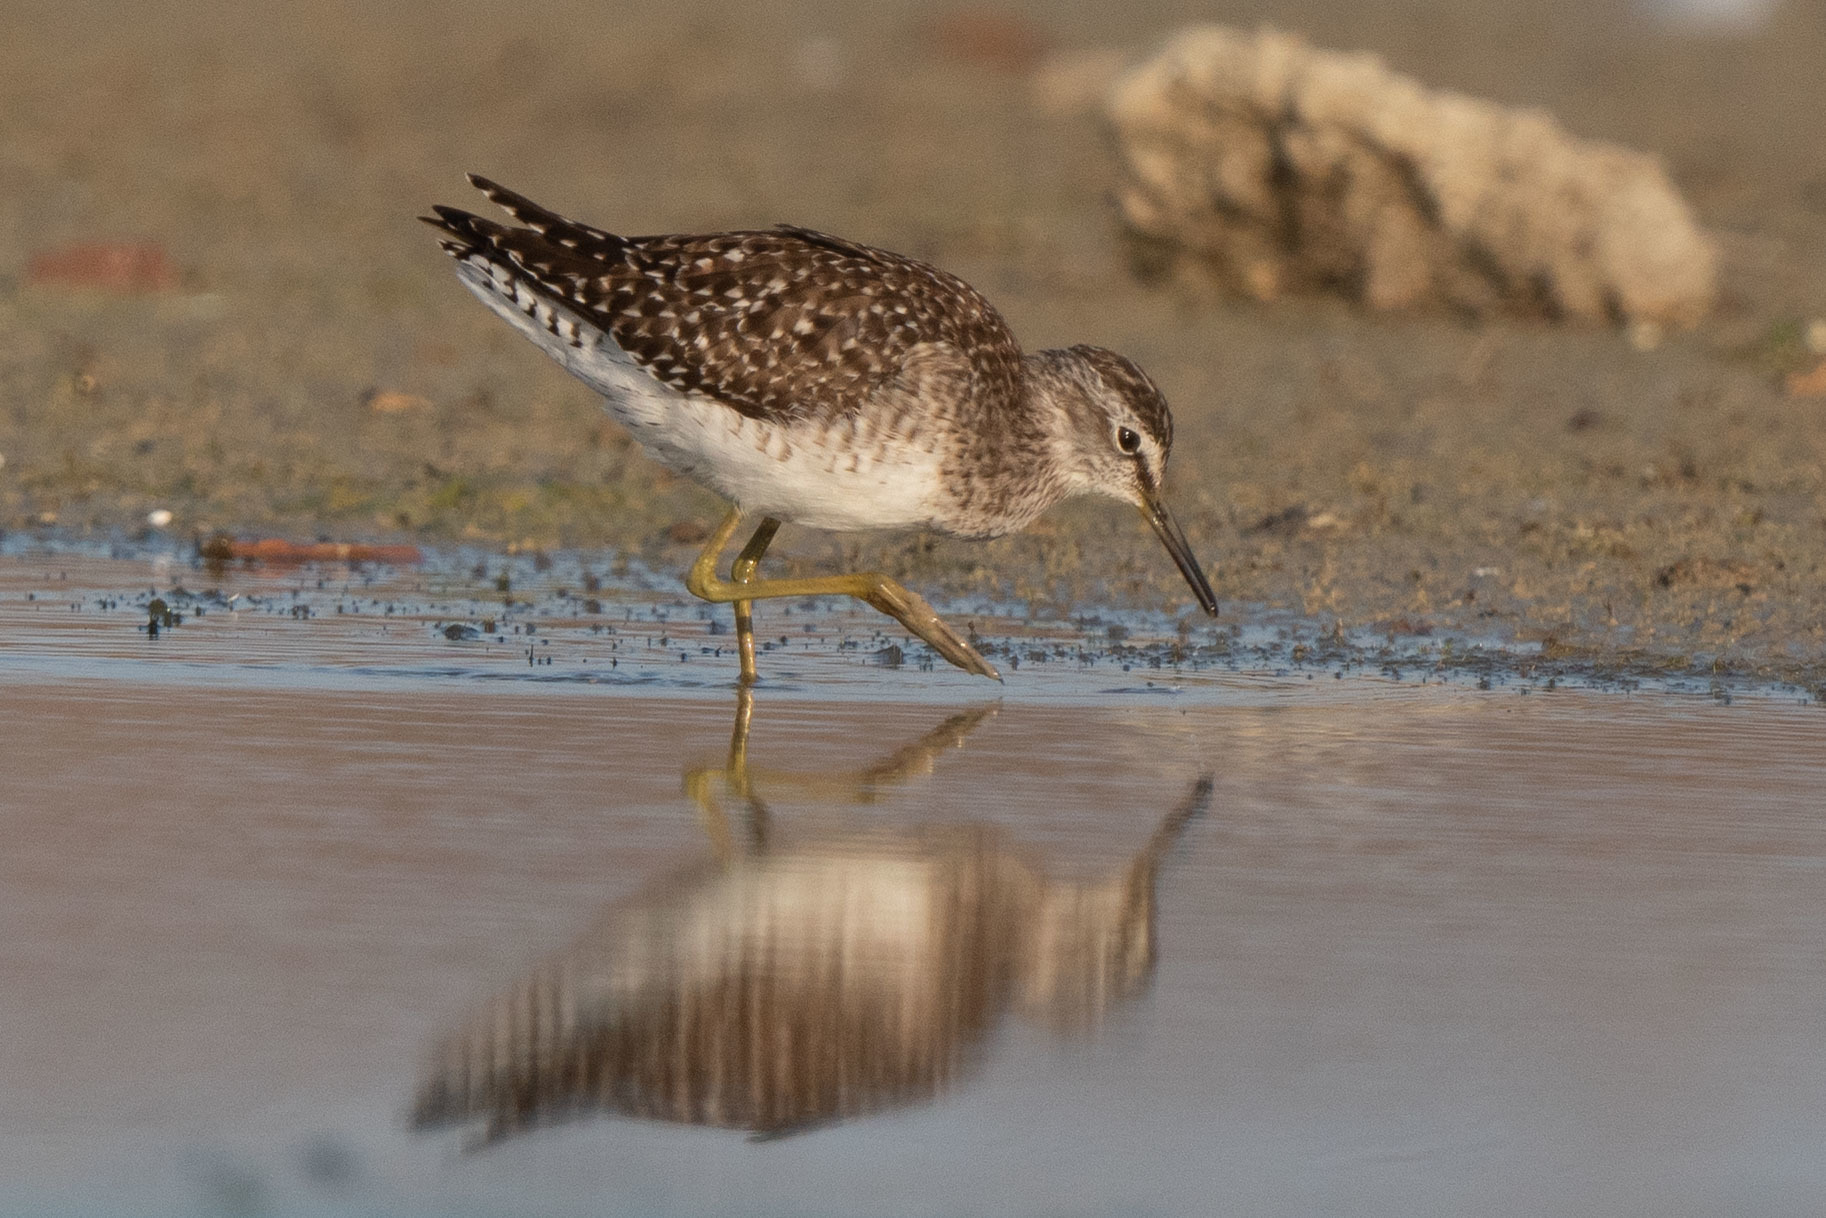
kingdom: Animalia
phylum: Chordata
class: Aves
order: Charadriiformes
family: Scolopacidae
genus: Tringa
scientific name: Tringa glareola
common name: Wood sandpiper
